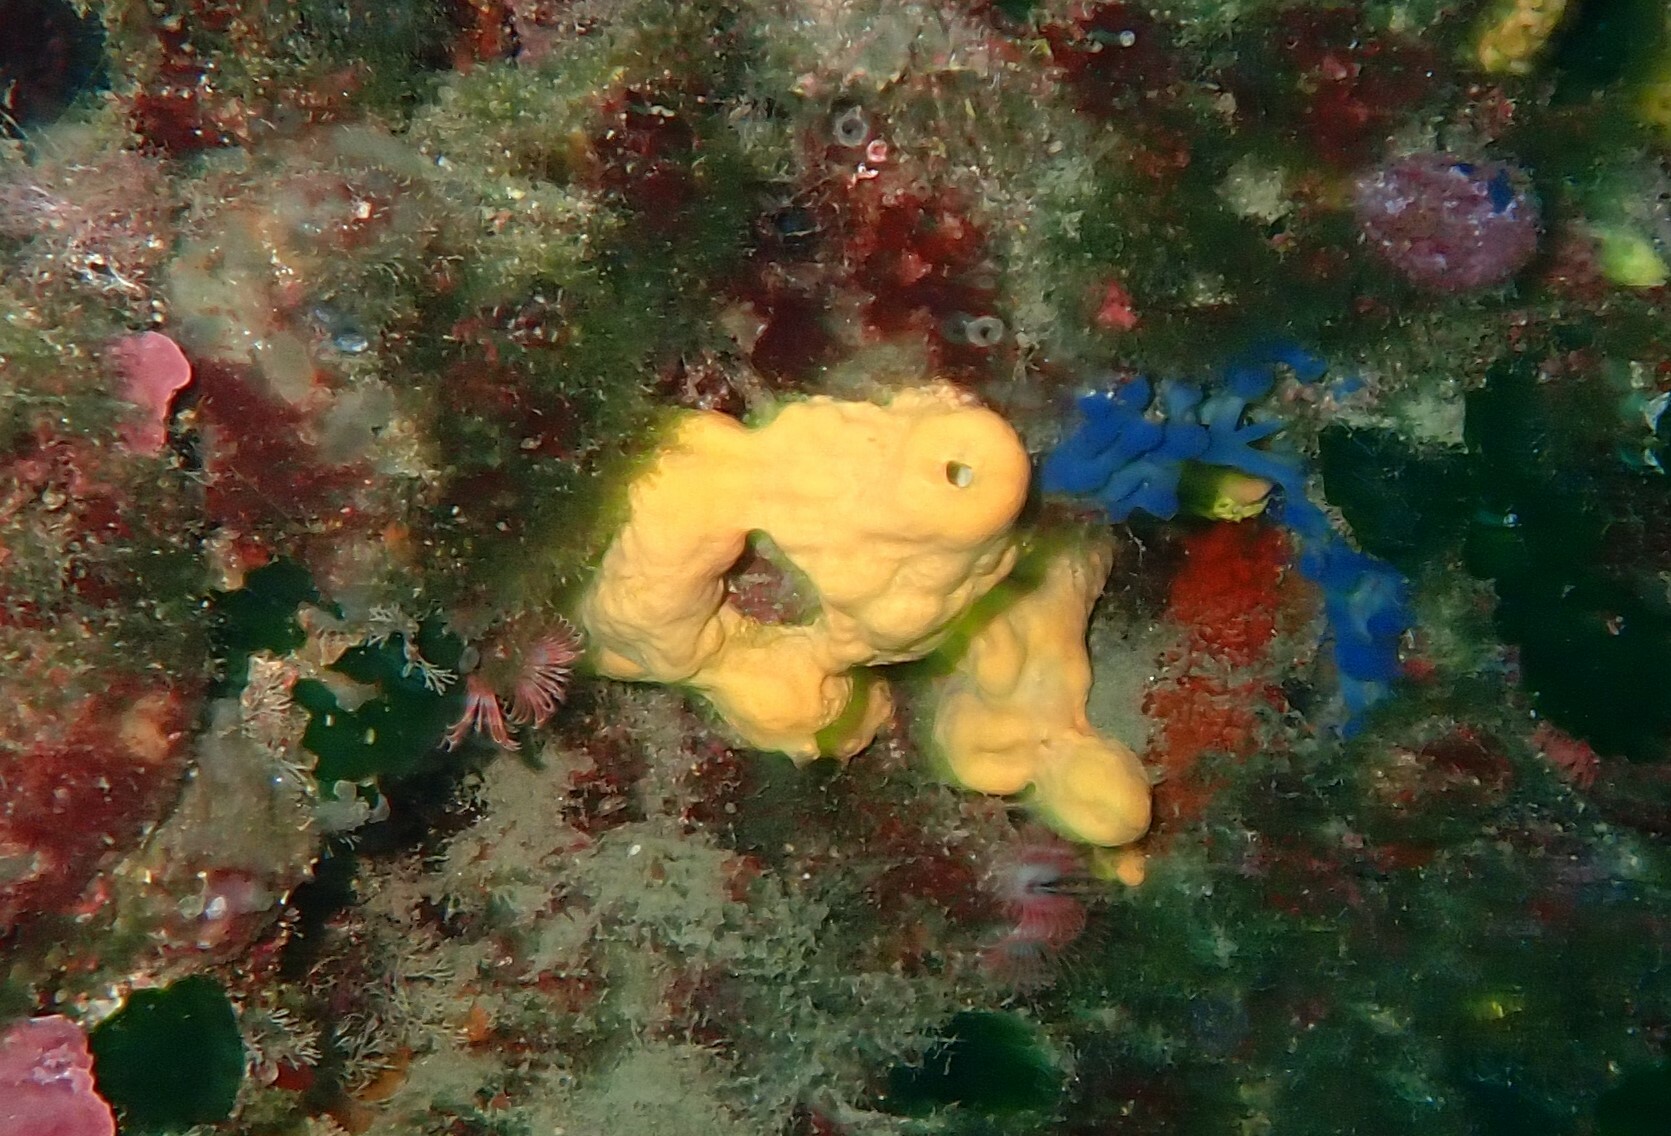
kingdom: Animalia
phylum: Porifera
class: Demospongiae
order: Agelasida
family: Agelasidae
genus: Agelas
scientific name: Agelas oroides
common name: Maltese sponge
